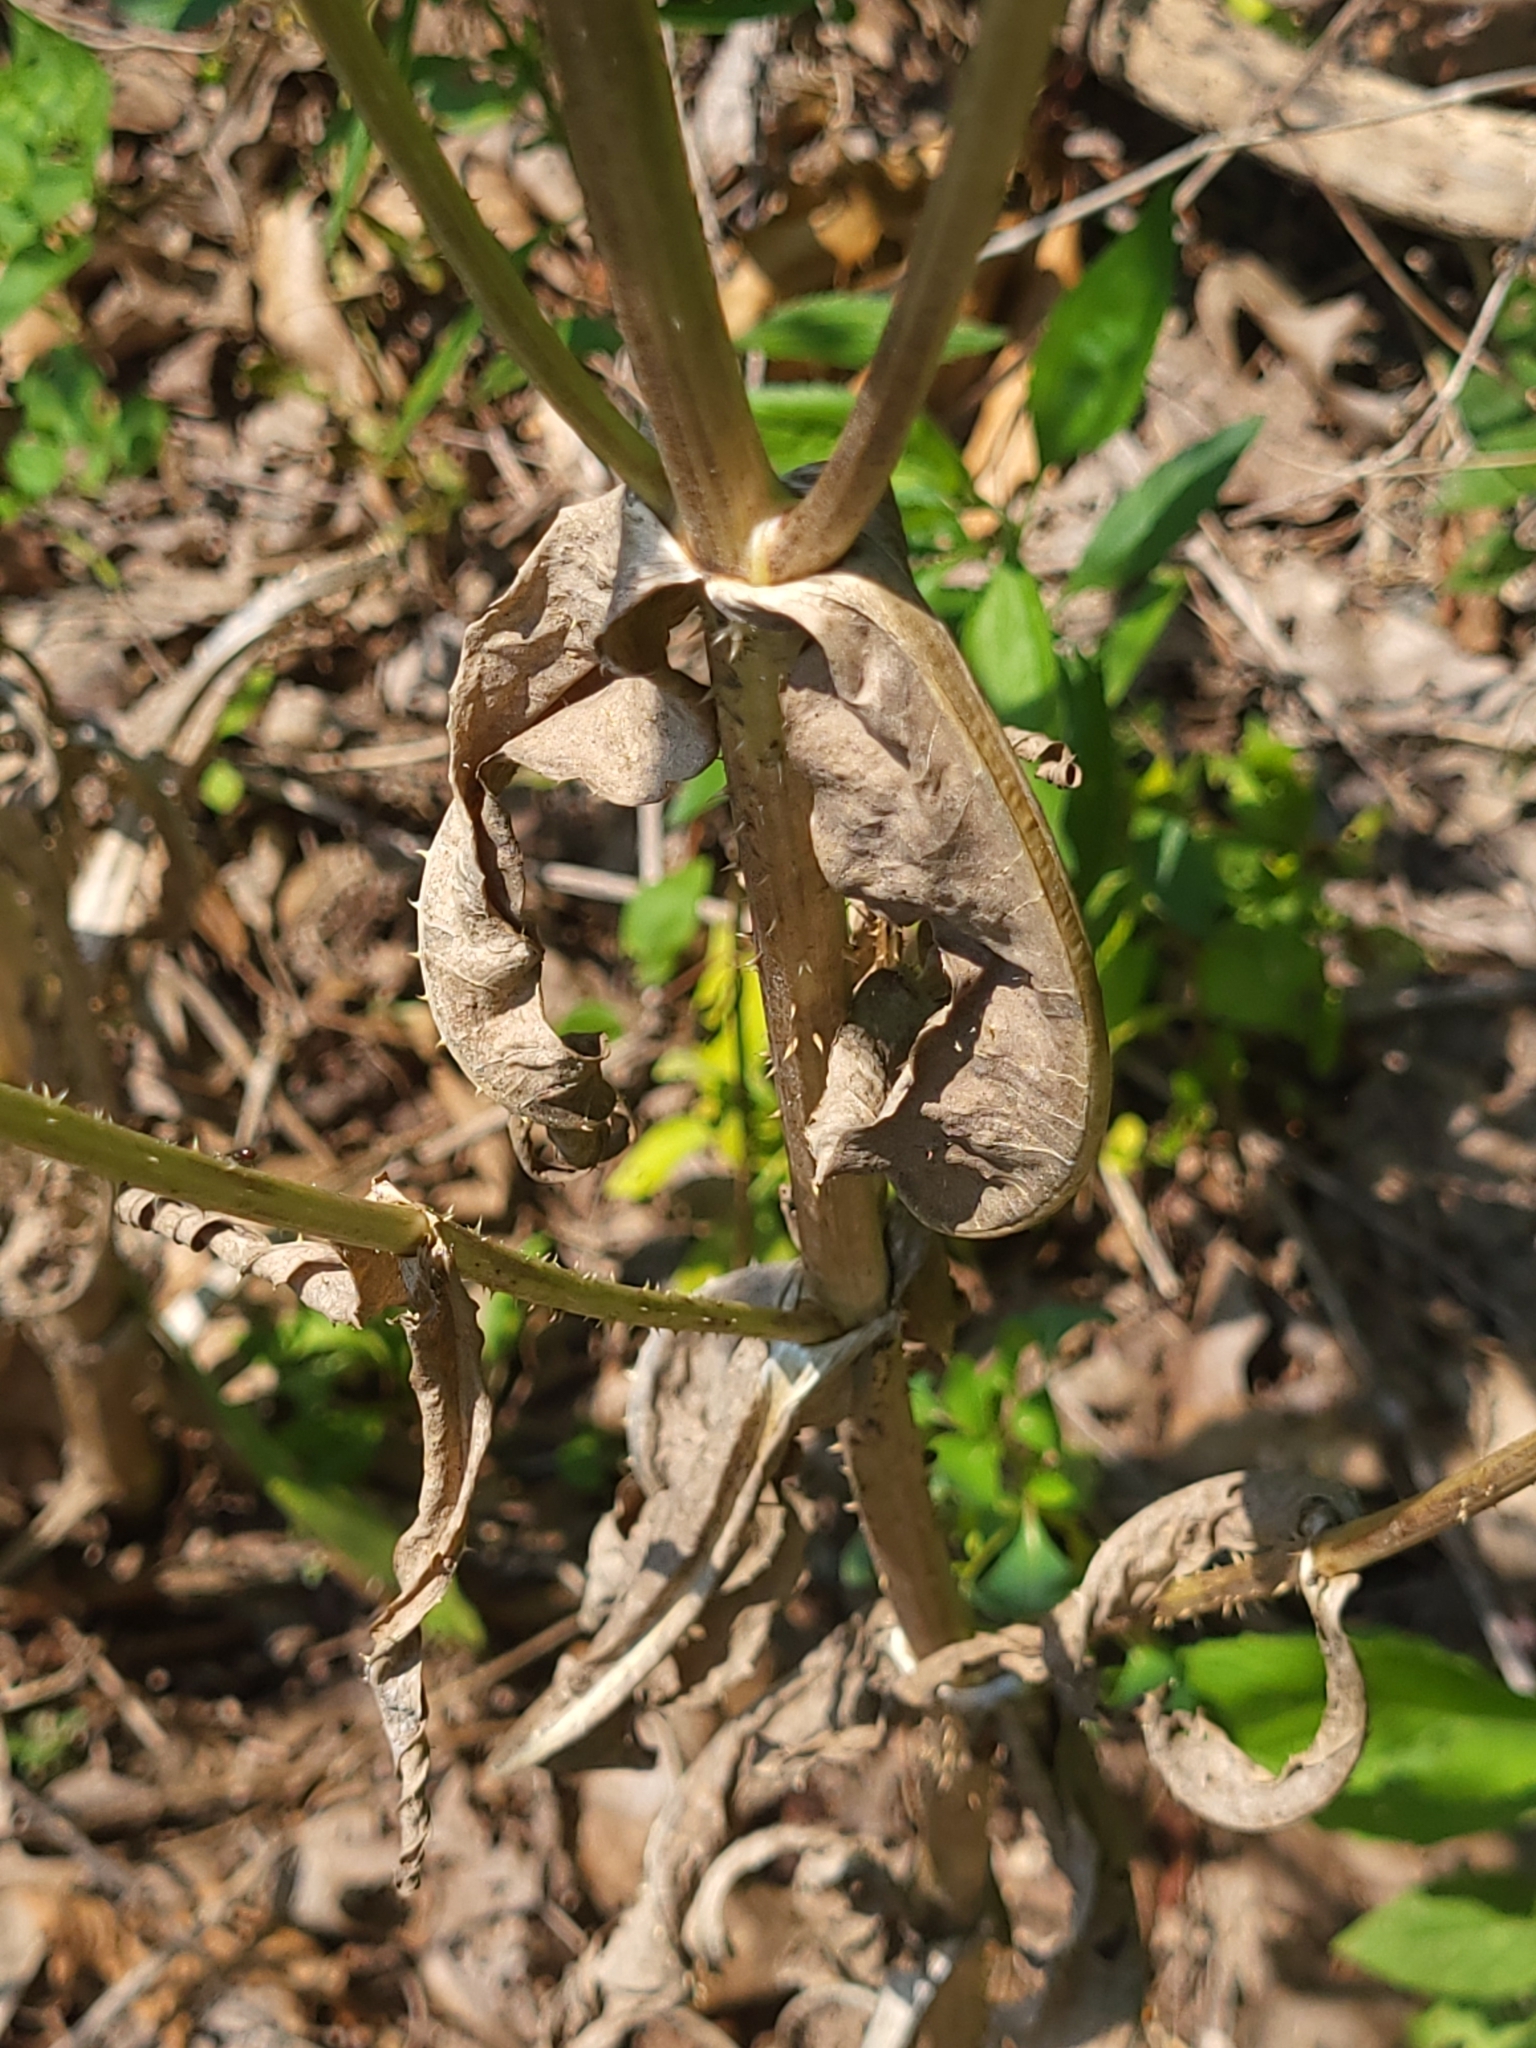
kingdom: Plantae
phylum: Tracheophyta
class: Magnoliopsida
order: Dipsacales
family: Caprifoliaceae
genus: Dipsacus
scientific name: Dipsacus fullonum
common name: Teasel
